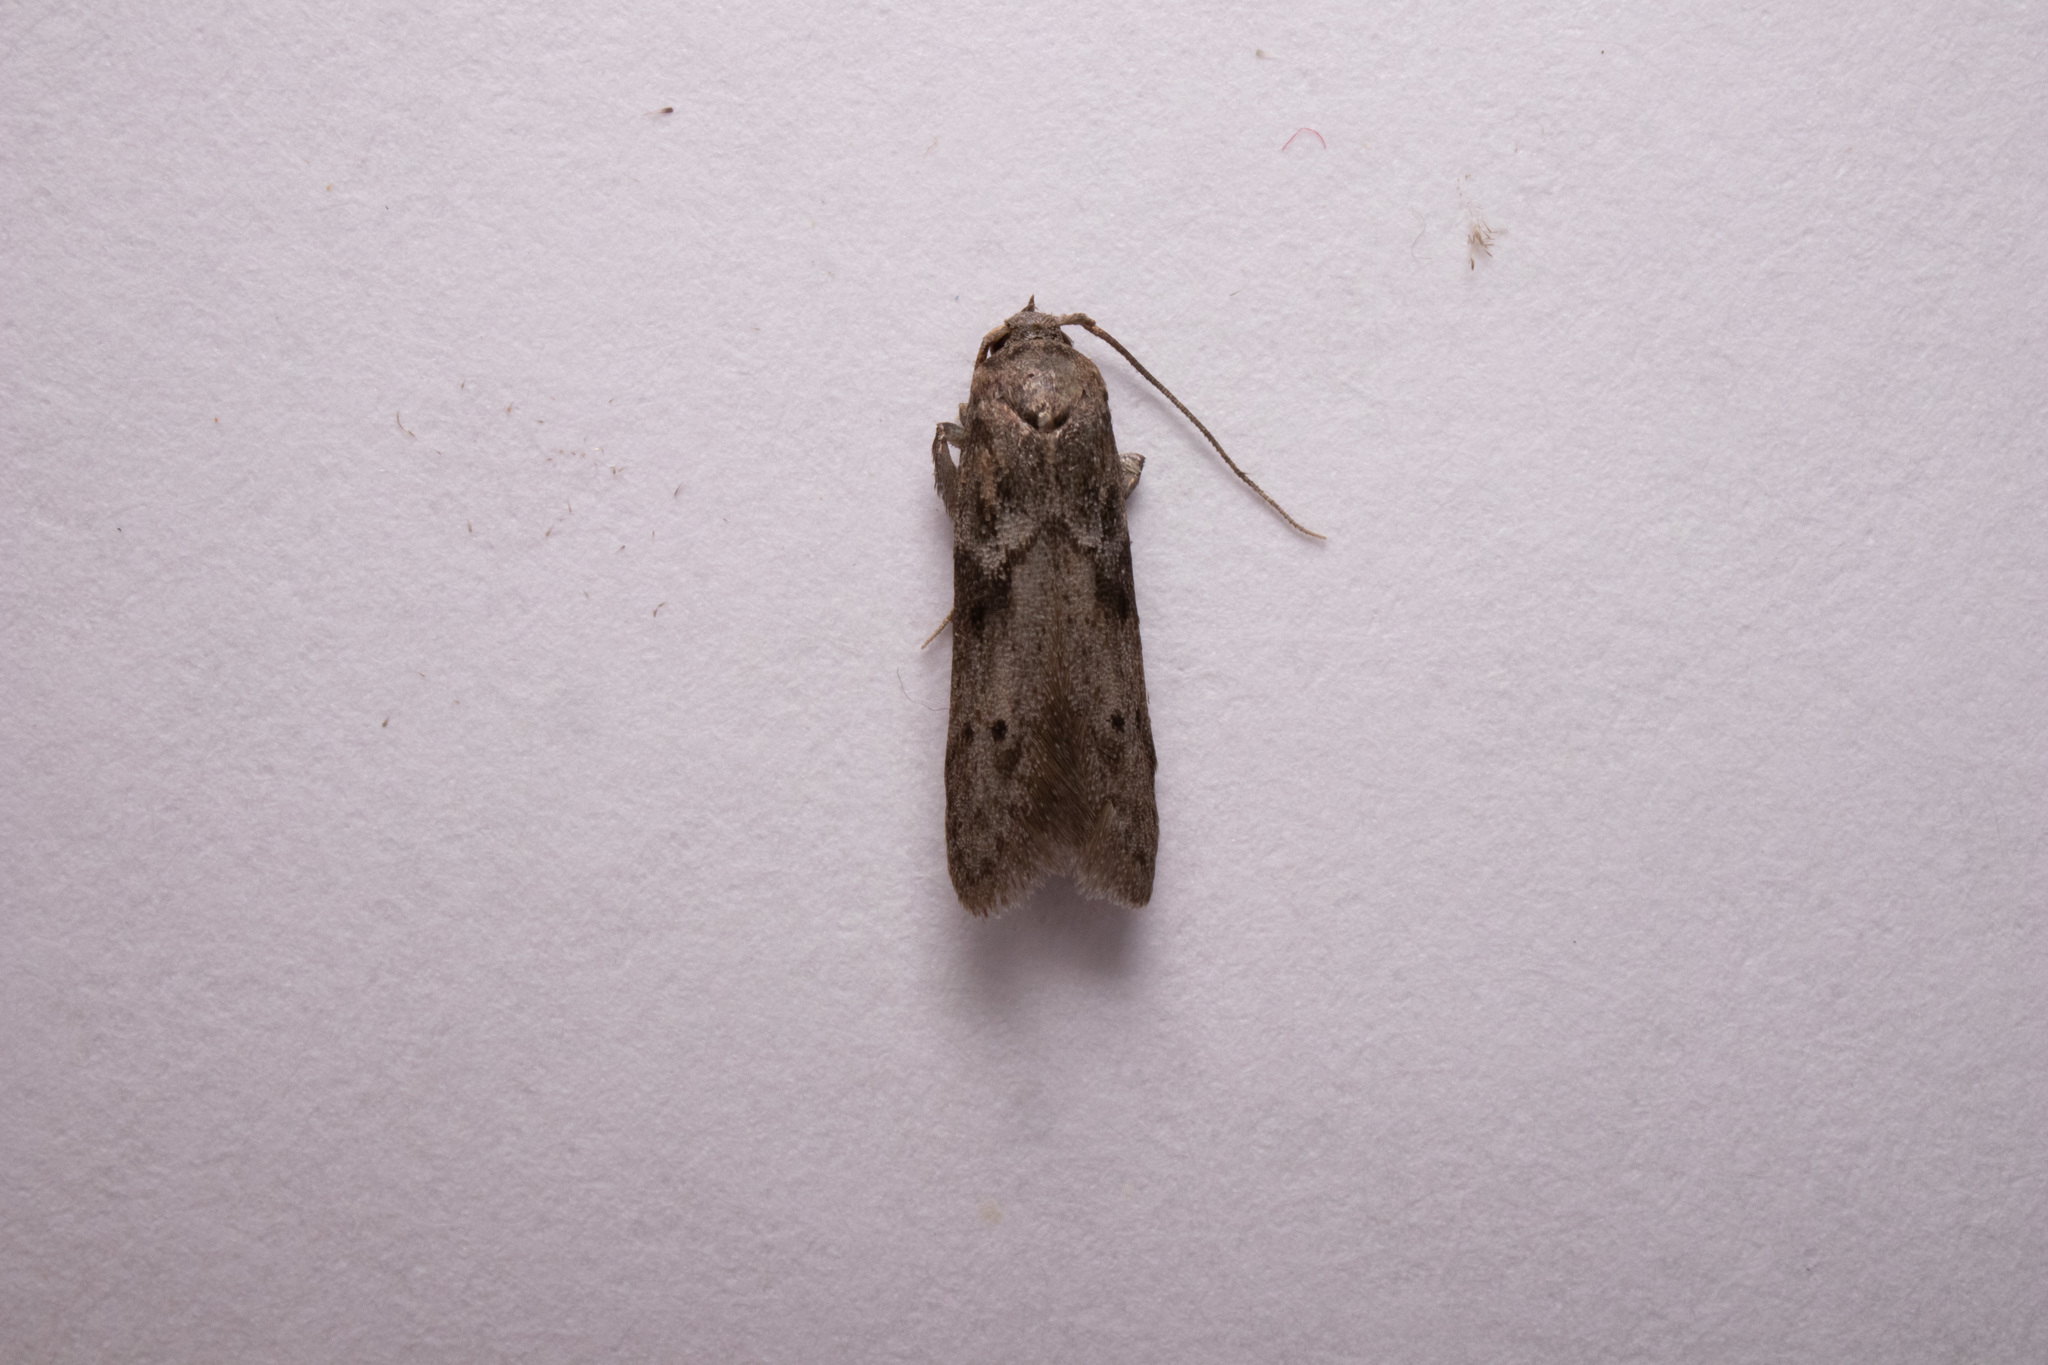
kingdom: Animalia
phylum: Arthropoda
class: Insecta
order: Lepidoptera
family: Blastobasidae
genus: Blastobasis
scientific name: Blastobasis glandulella
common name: Acorn moth
